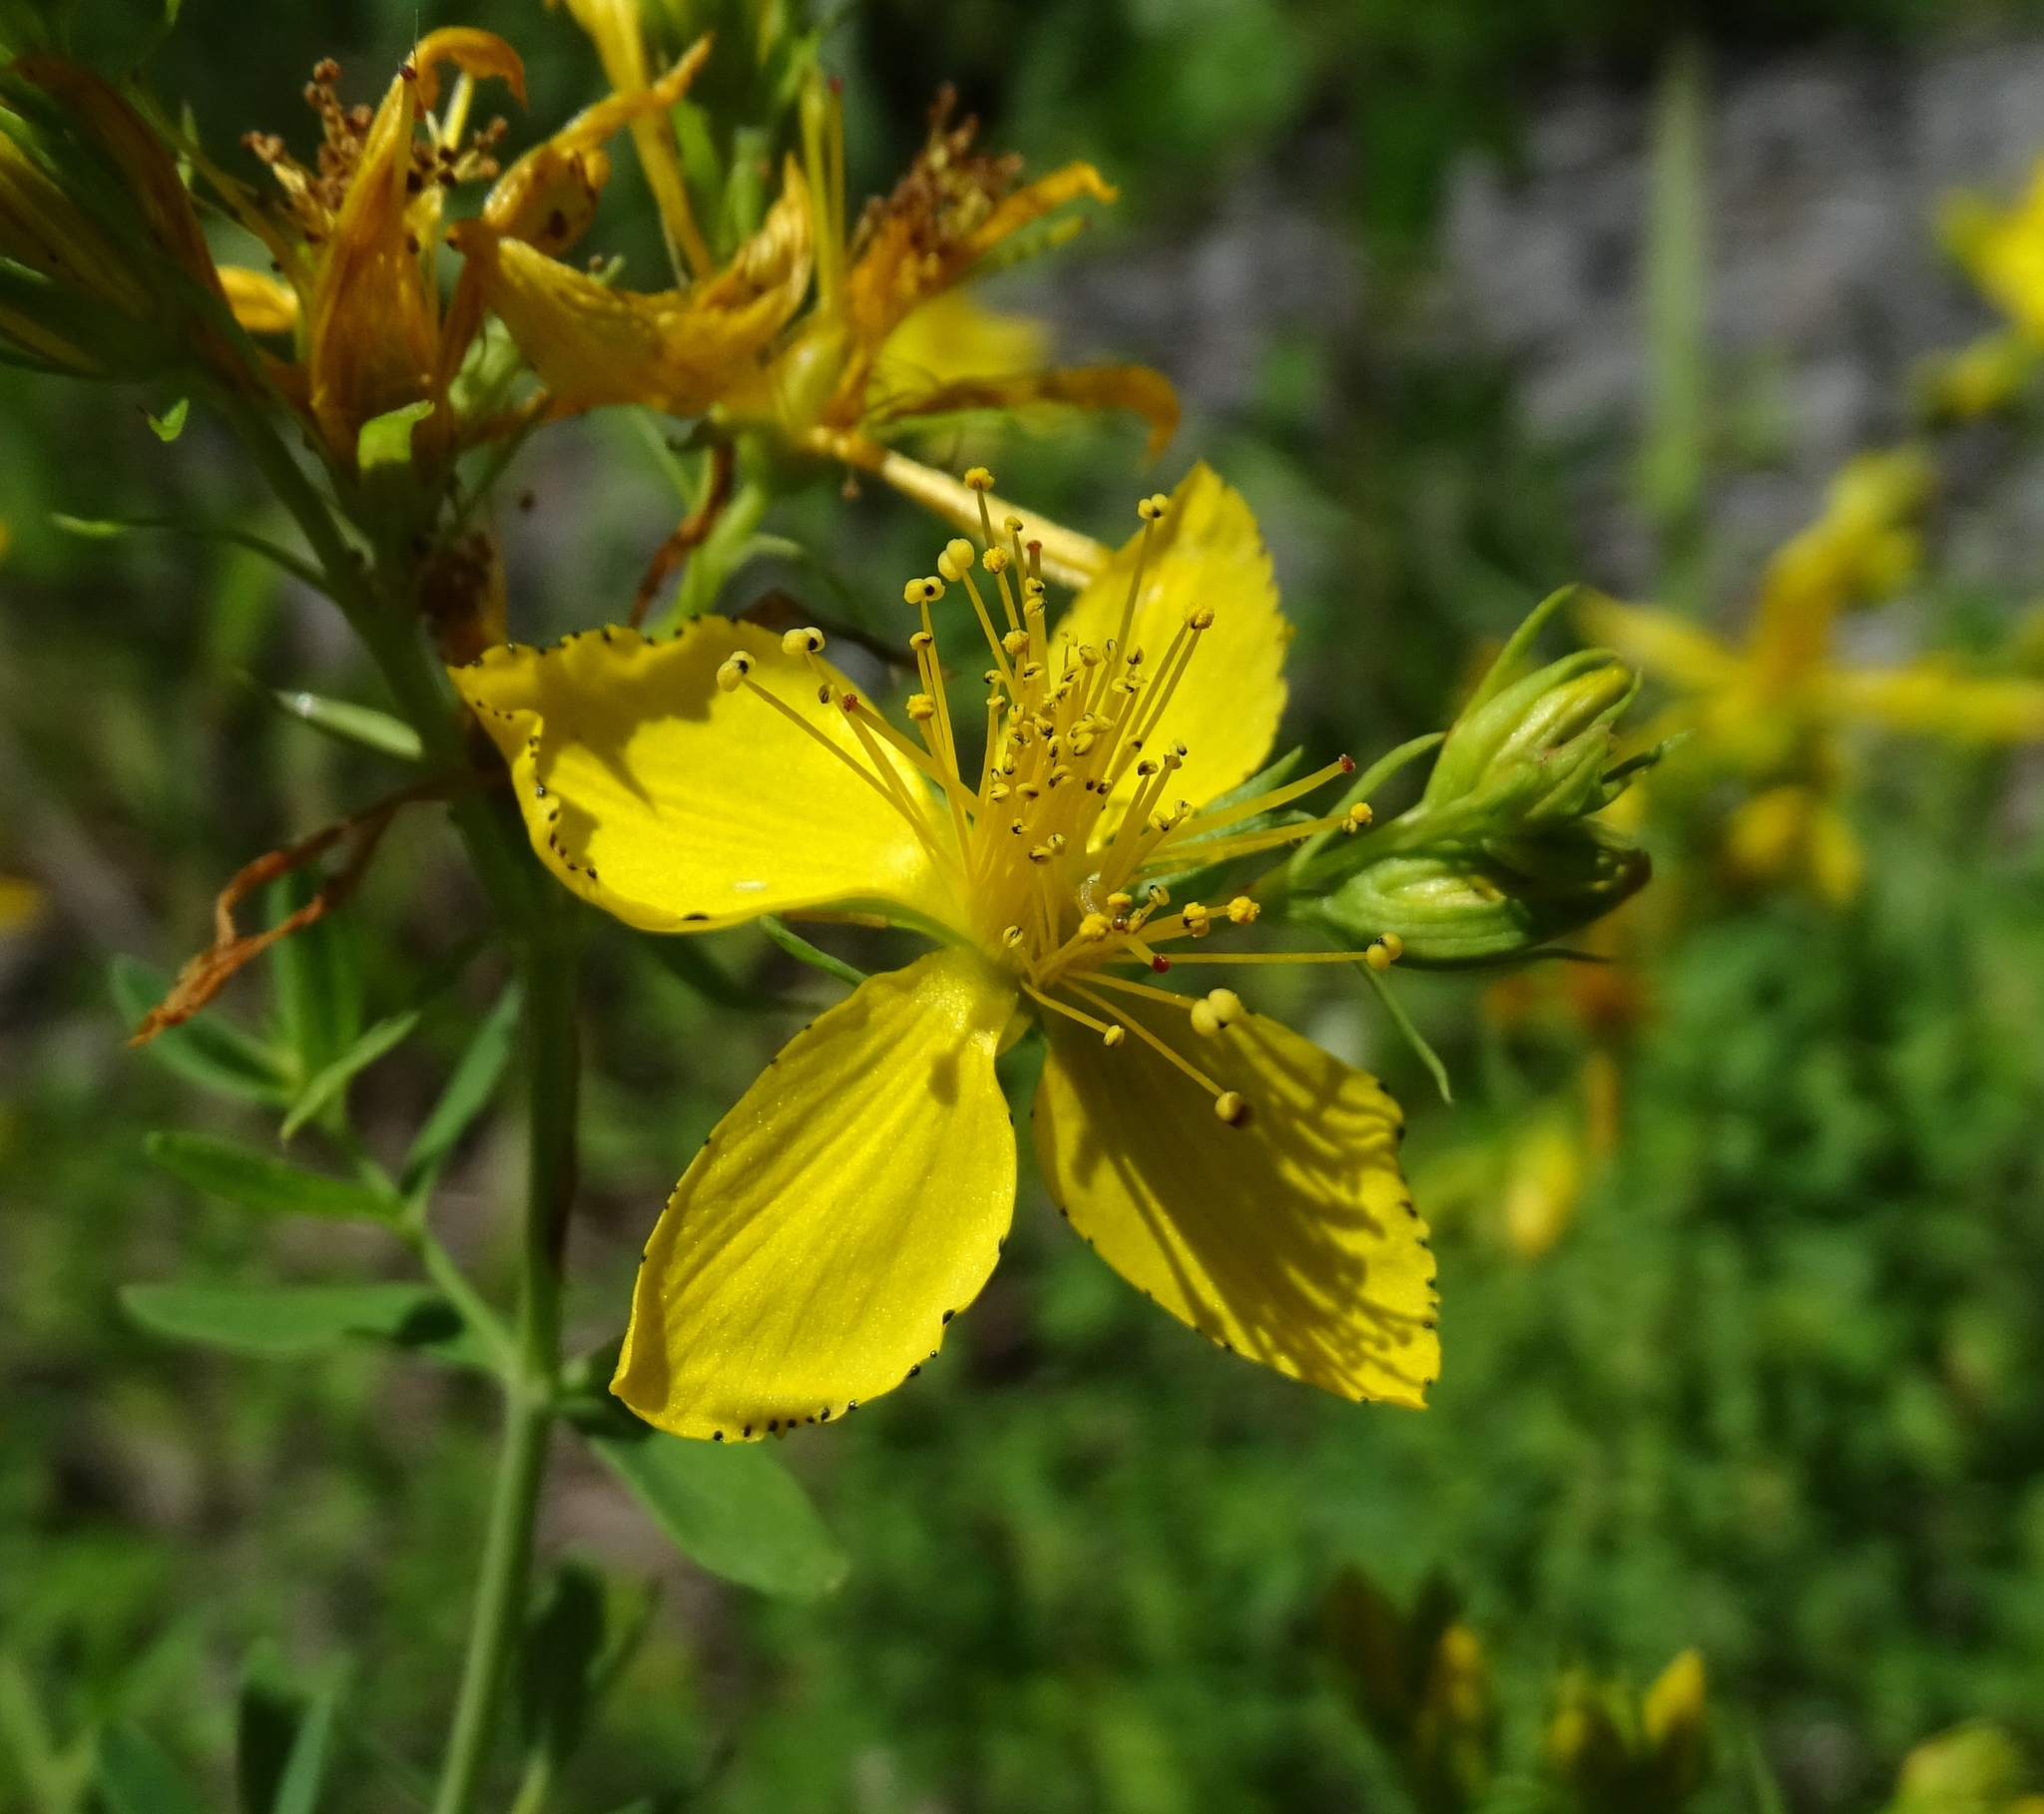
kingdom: Plantae
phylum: Tracheophyta
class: Magnoliopsida
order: Malpighiales
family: Hypericaceae
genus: Hypericum
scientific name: Hypericum perforatum
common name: Common st. johnswort
